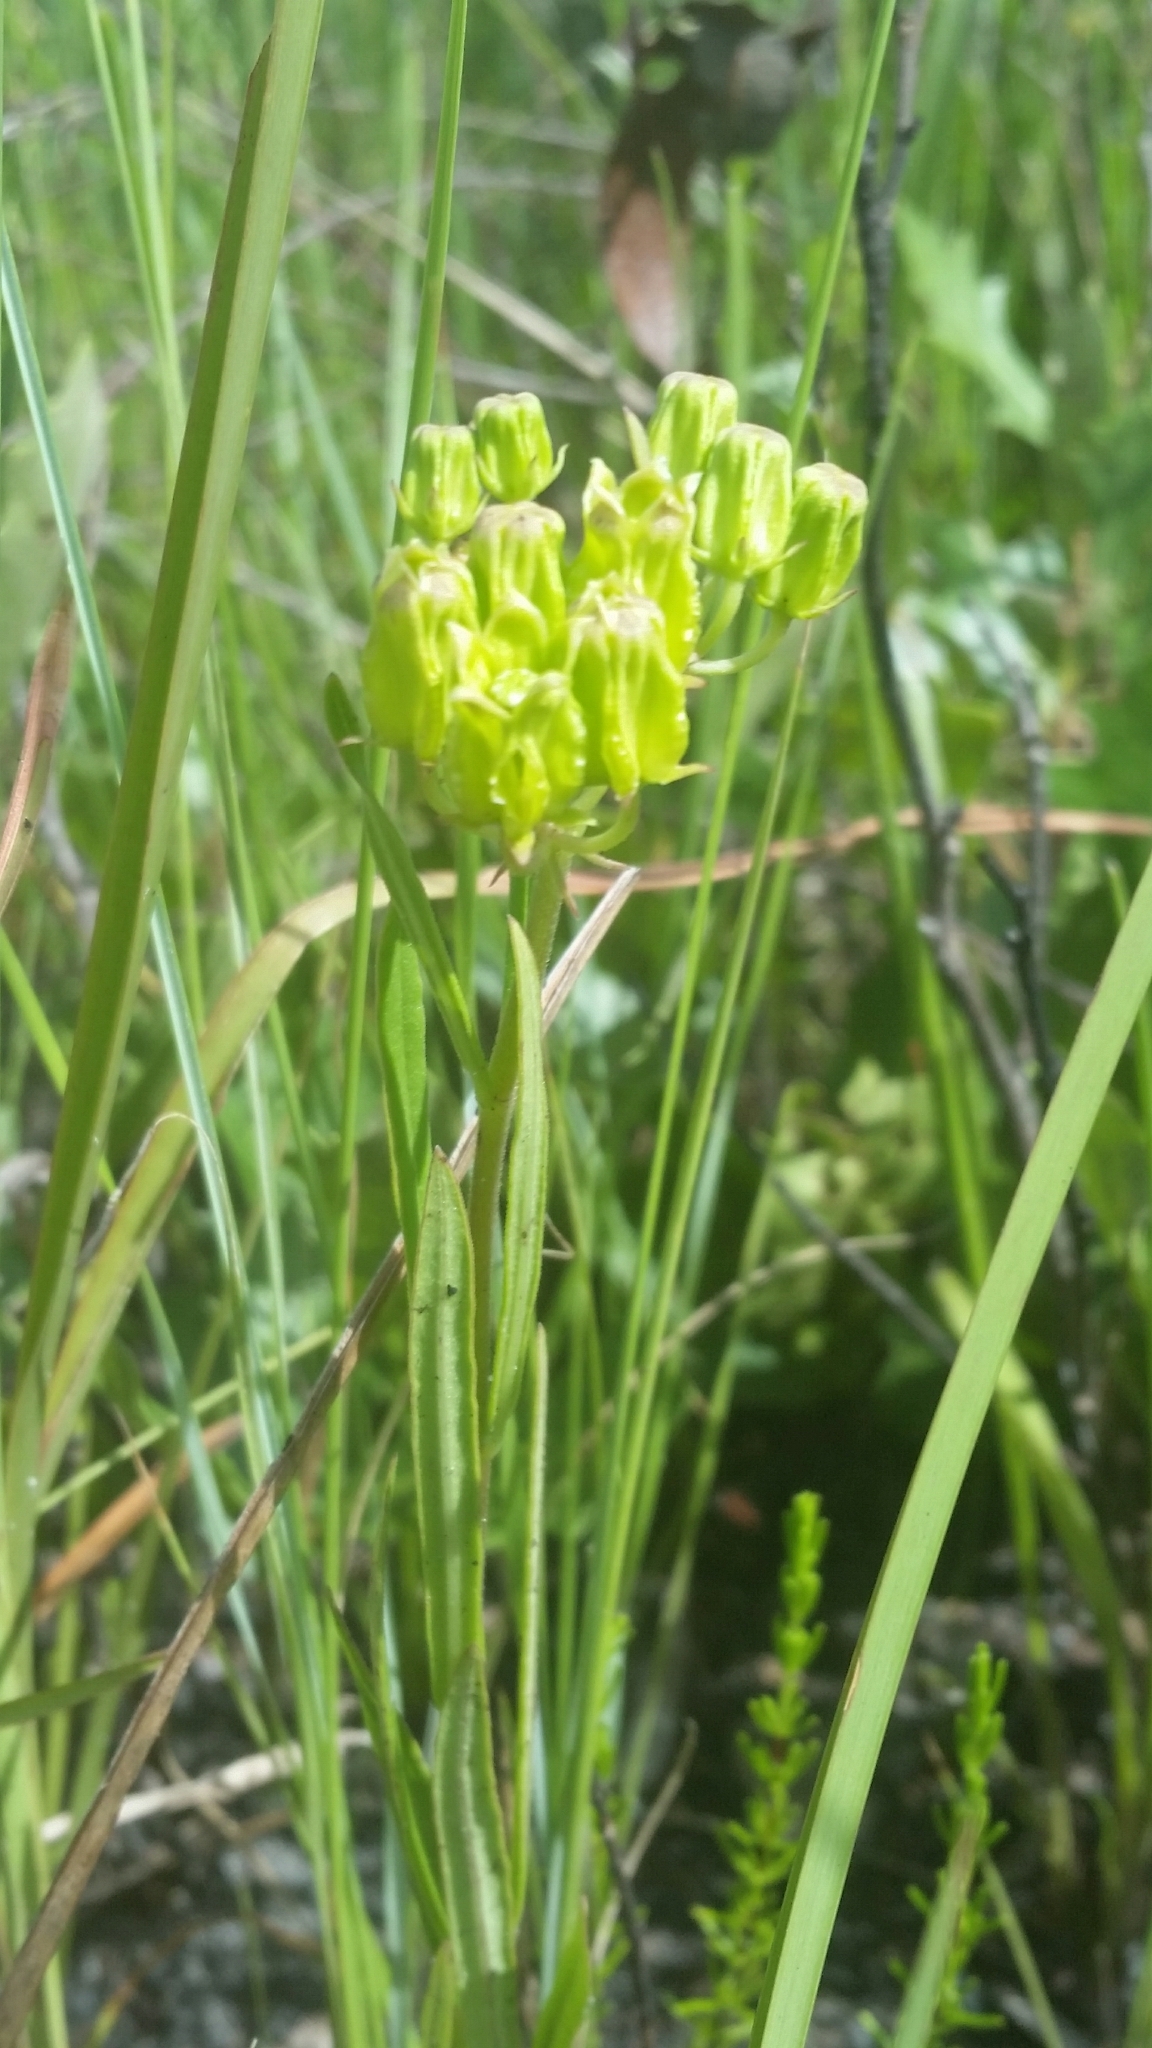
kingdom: Plantae
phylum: Tracheophyta
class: Magnoliopsida
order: Gentianales
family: Apocynaceae
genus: Asclepias
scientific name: Asclepias pedicellata
